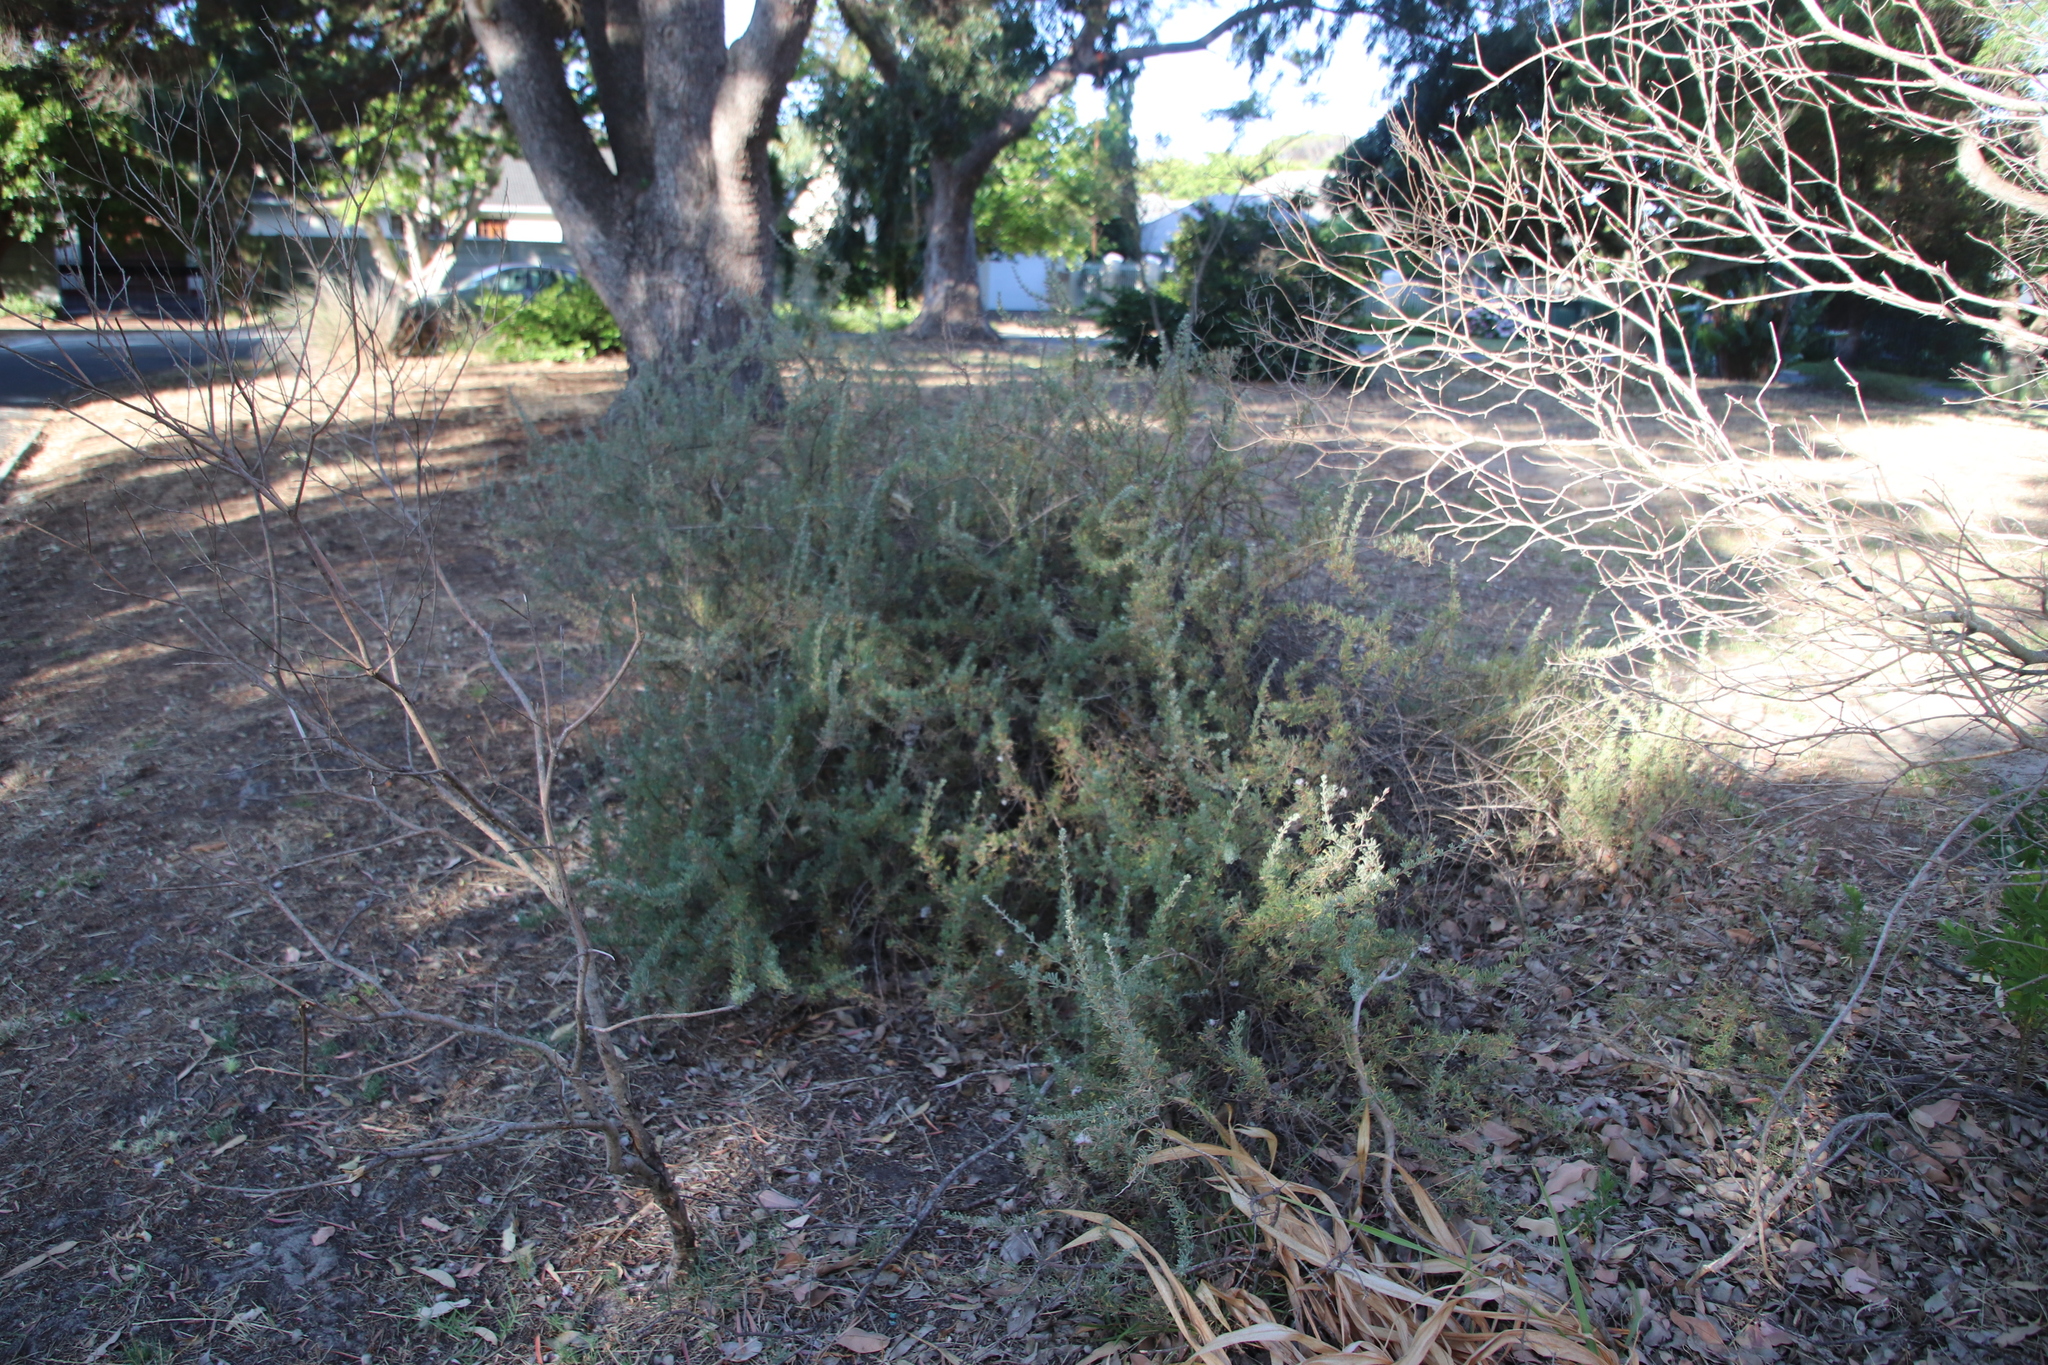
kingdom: Plantae
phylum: Tracheophyta
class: Magnoliopsida
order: Asterales
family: Asteraceae
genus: Eriocephalus
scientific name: Eriocephalus africanus
